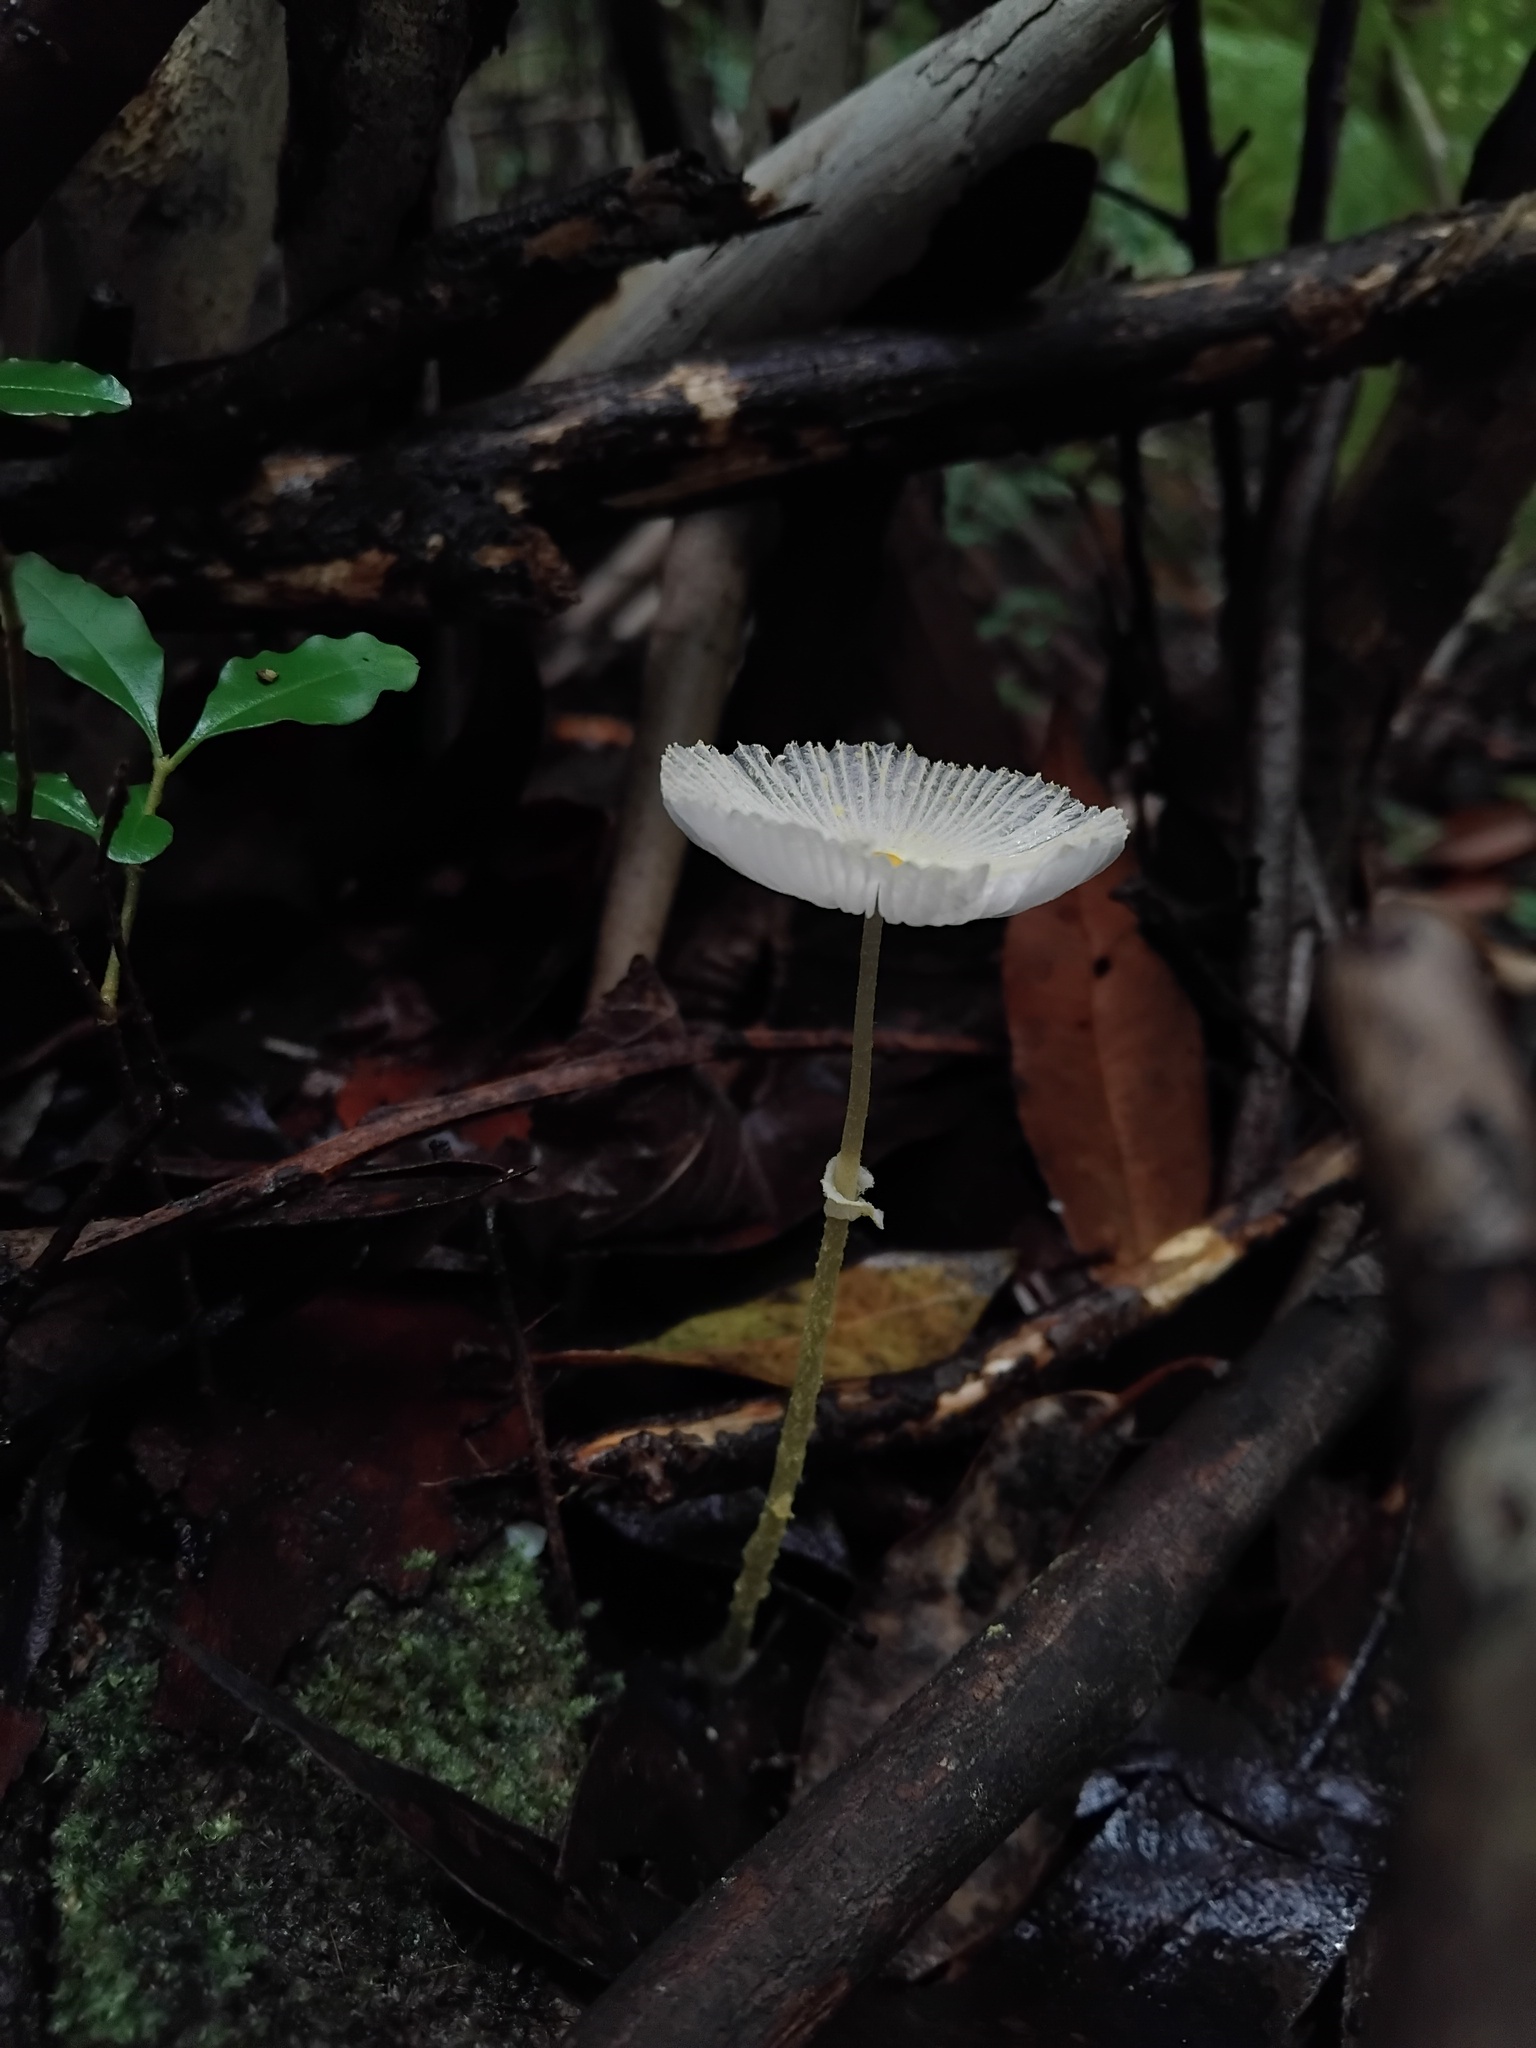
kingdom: Fungi
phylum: Basidiomycota
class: Agaricomycetes
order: Agaricales
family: Agaricaceae
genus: Leucocoprinus
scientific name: Leucocoprinus fragilissimus
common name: Fragile dapperling
